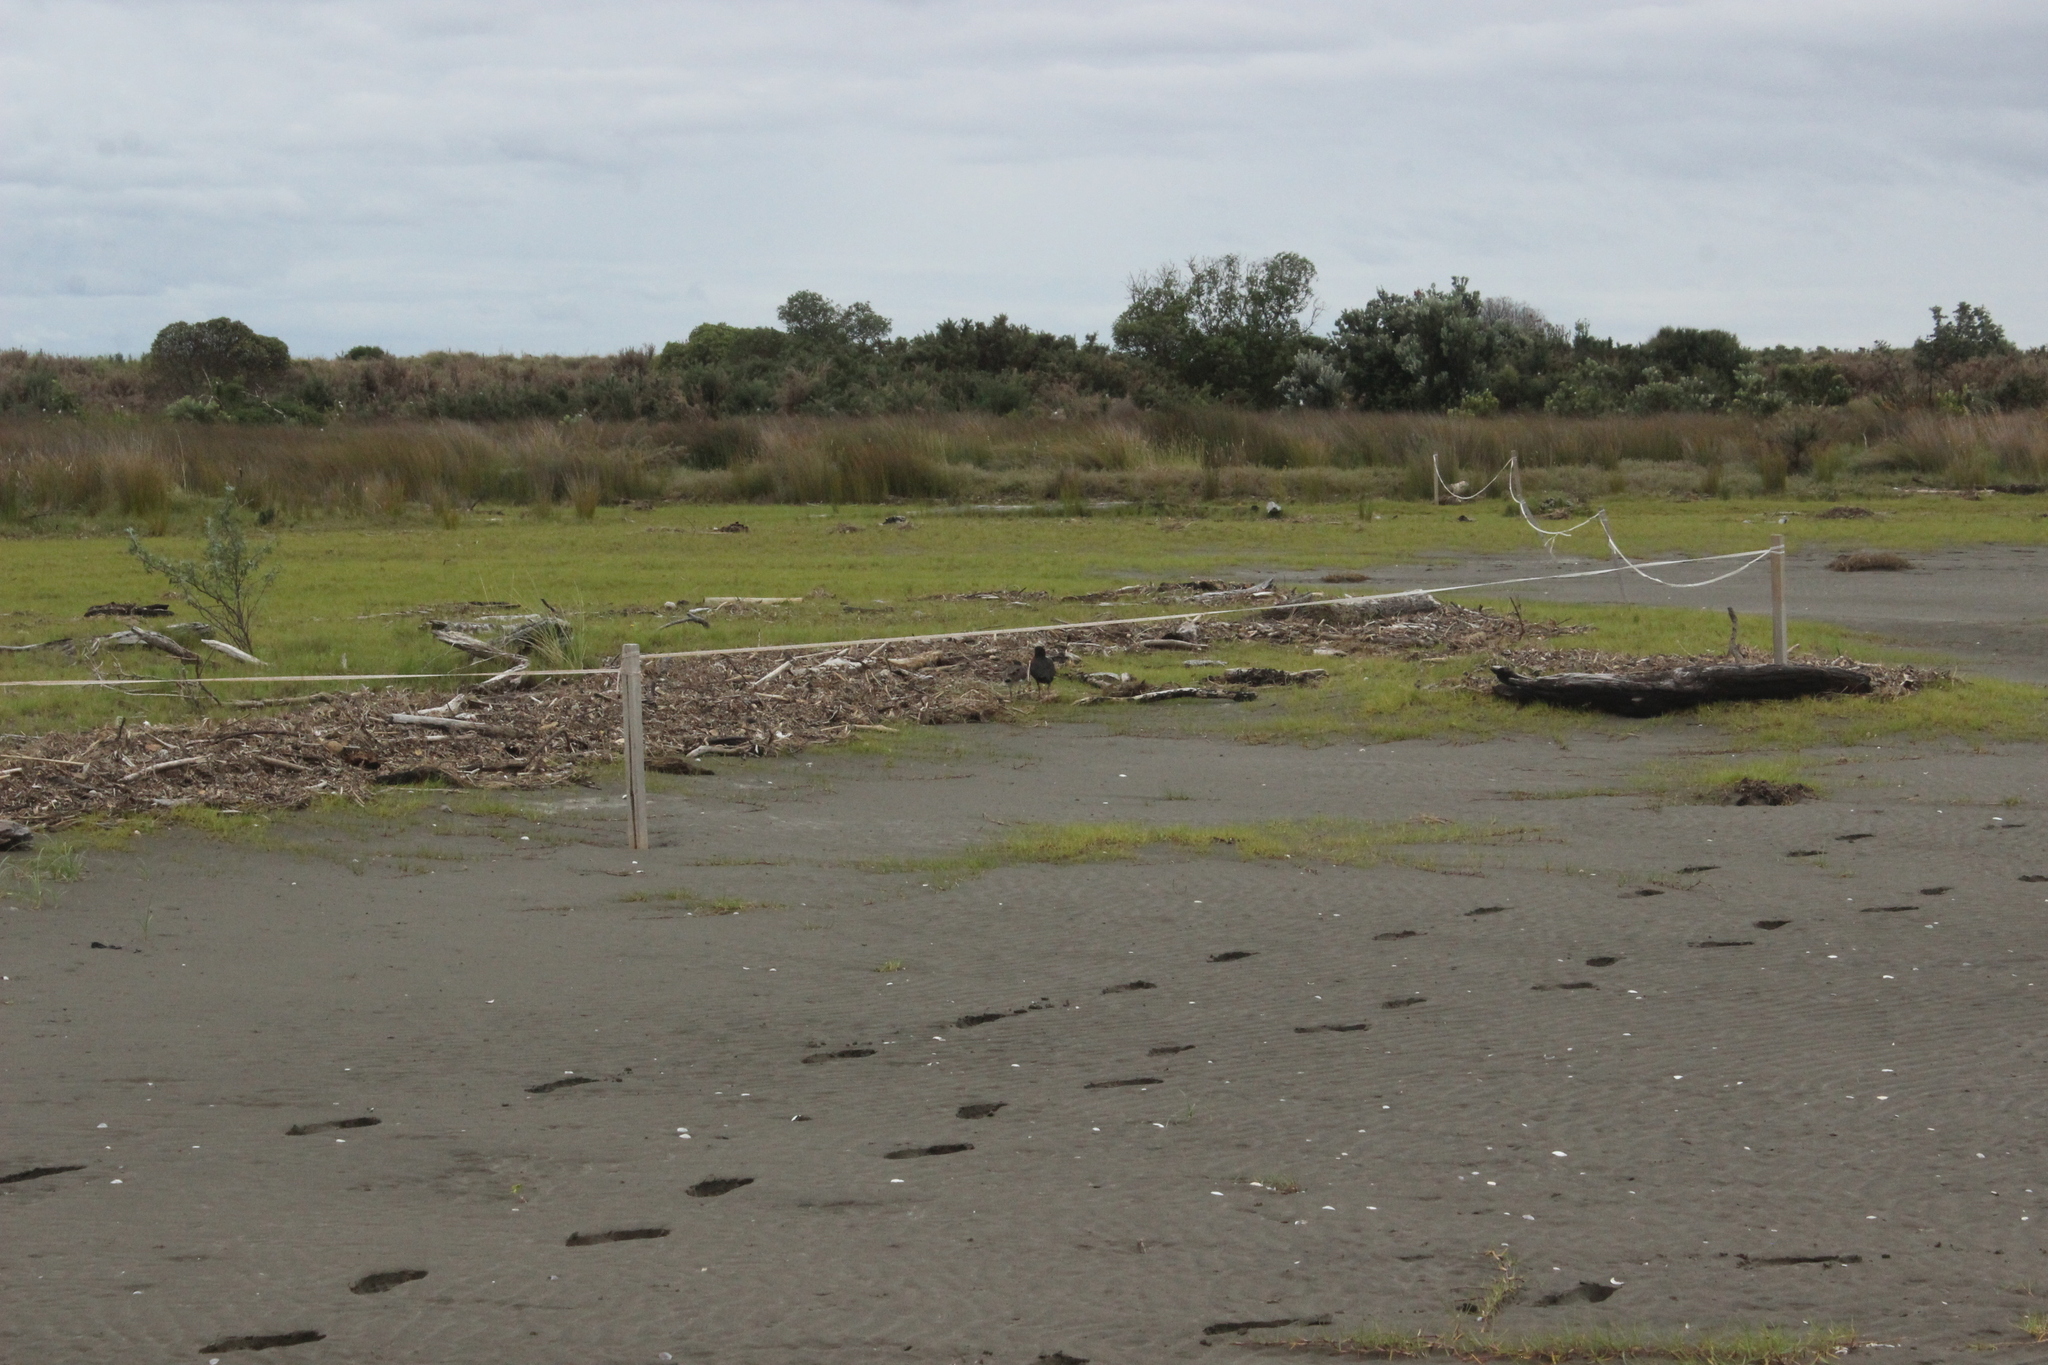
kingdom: Animalia
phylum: Chordata
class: Aves
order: Charadriiformes
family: Haematopodidae
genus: Haematopus
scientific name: Haematopus unicolor
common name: Variable oystercatcher
